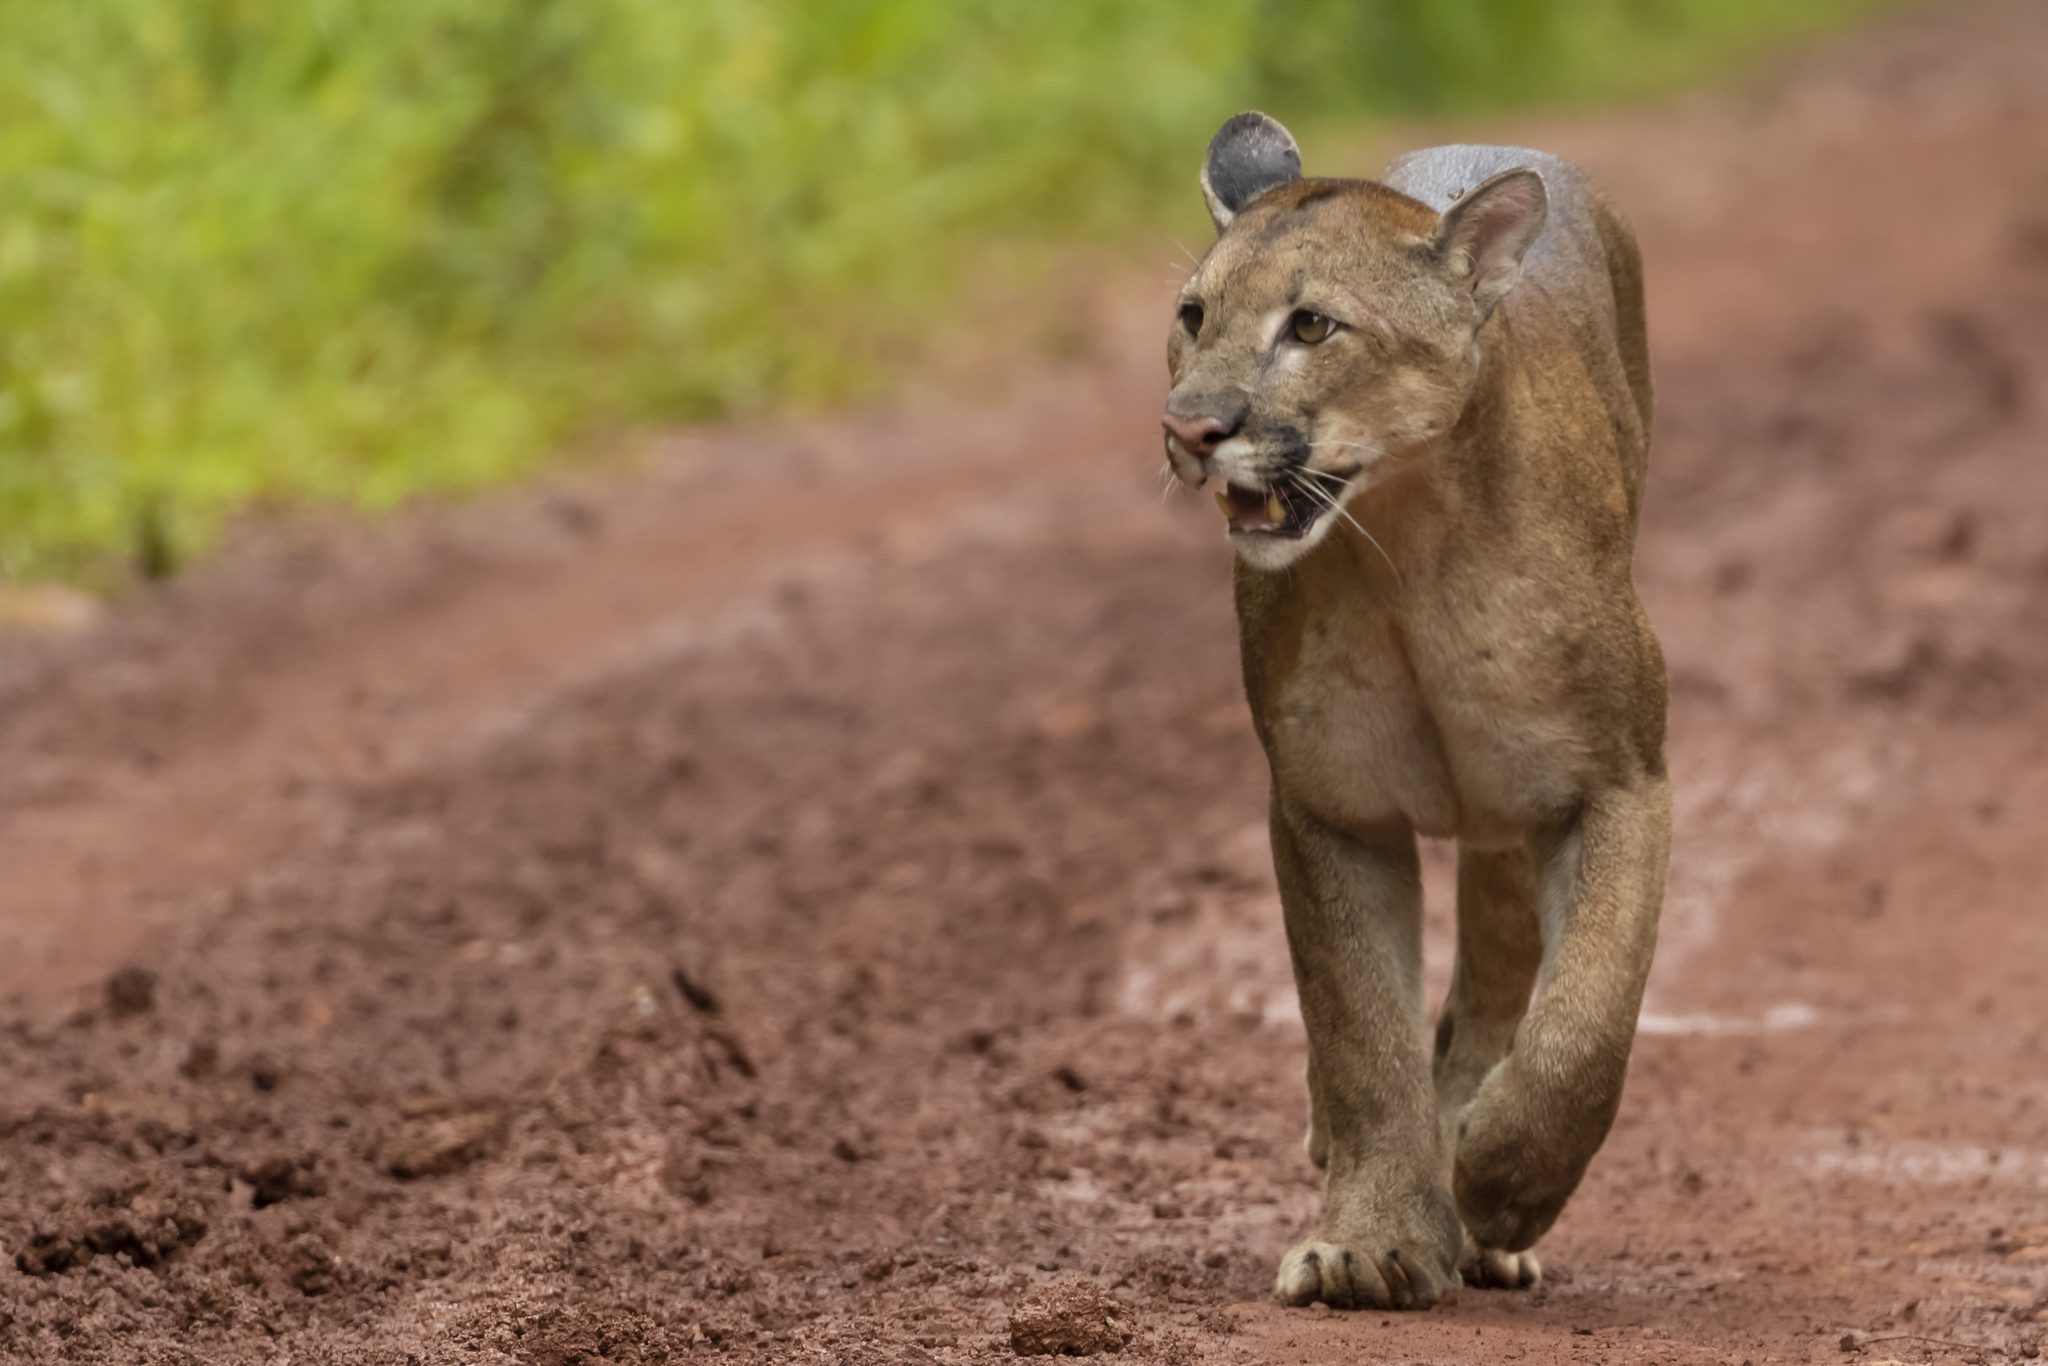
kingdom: Animalia
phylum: Chordata
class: Mammalia
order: Carnivora
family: Felidae
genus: Puma
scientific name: Puma concolor
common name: Puma
